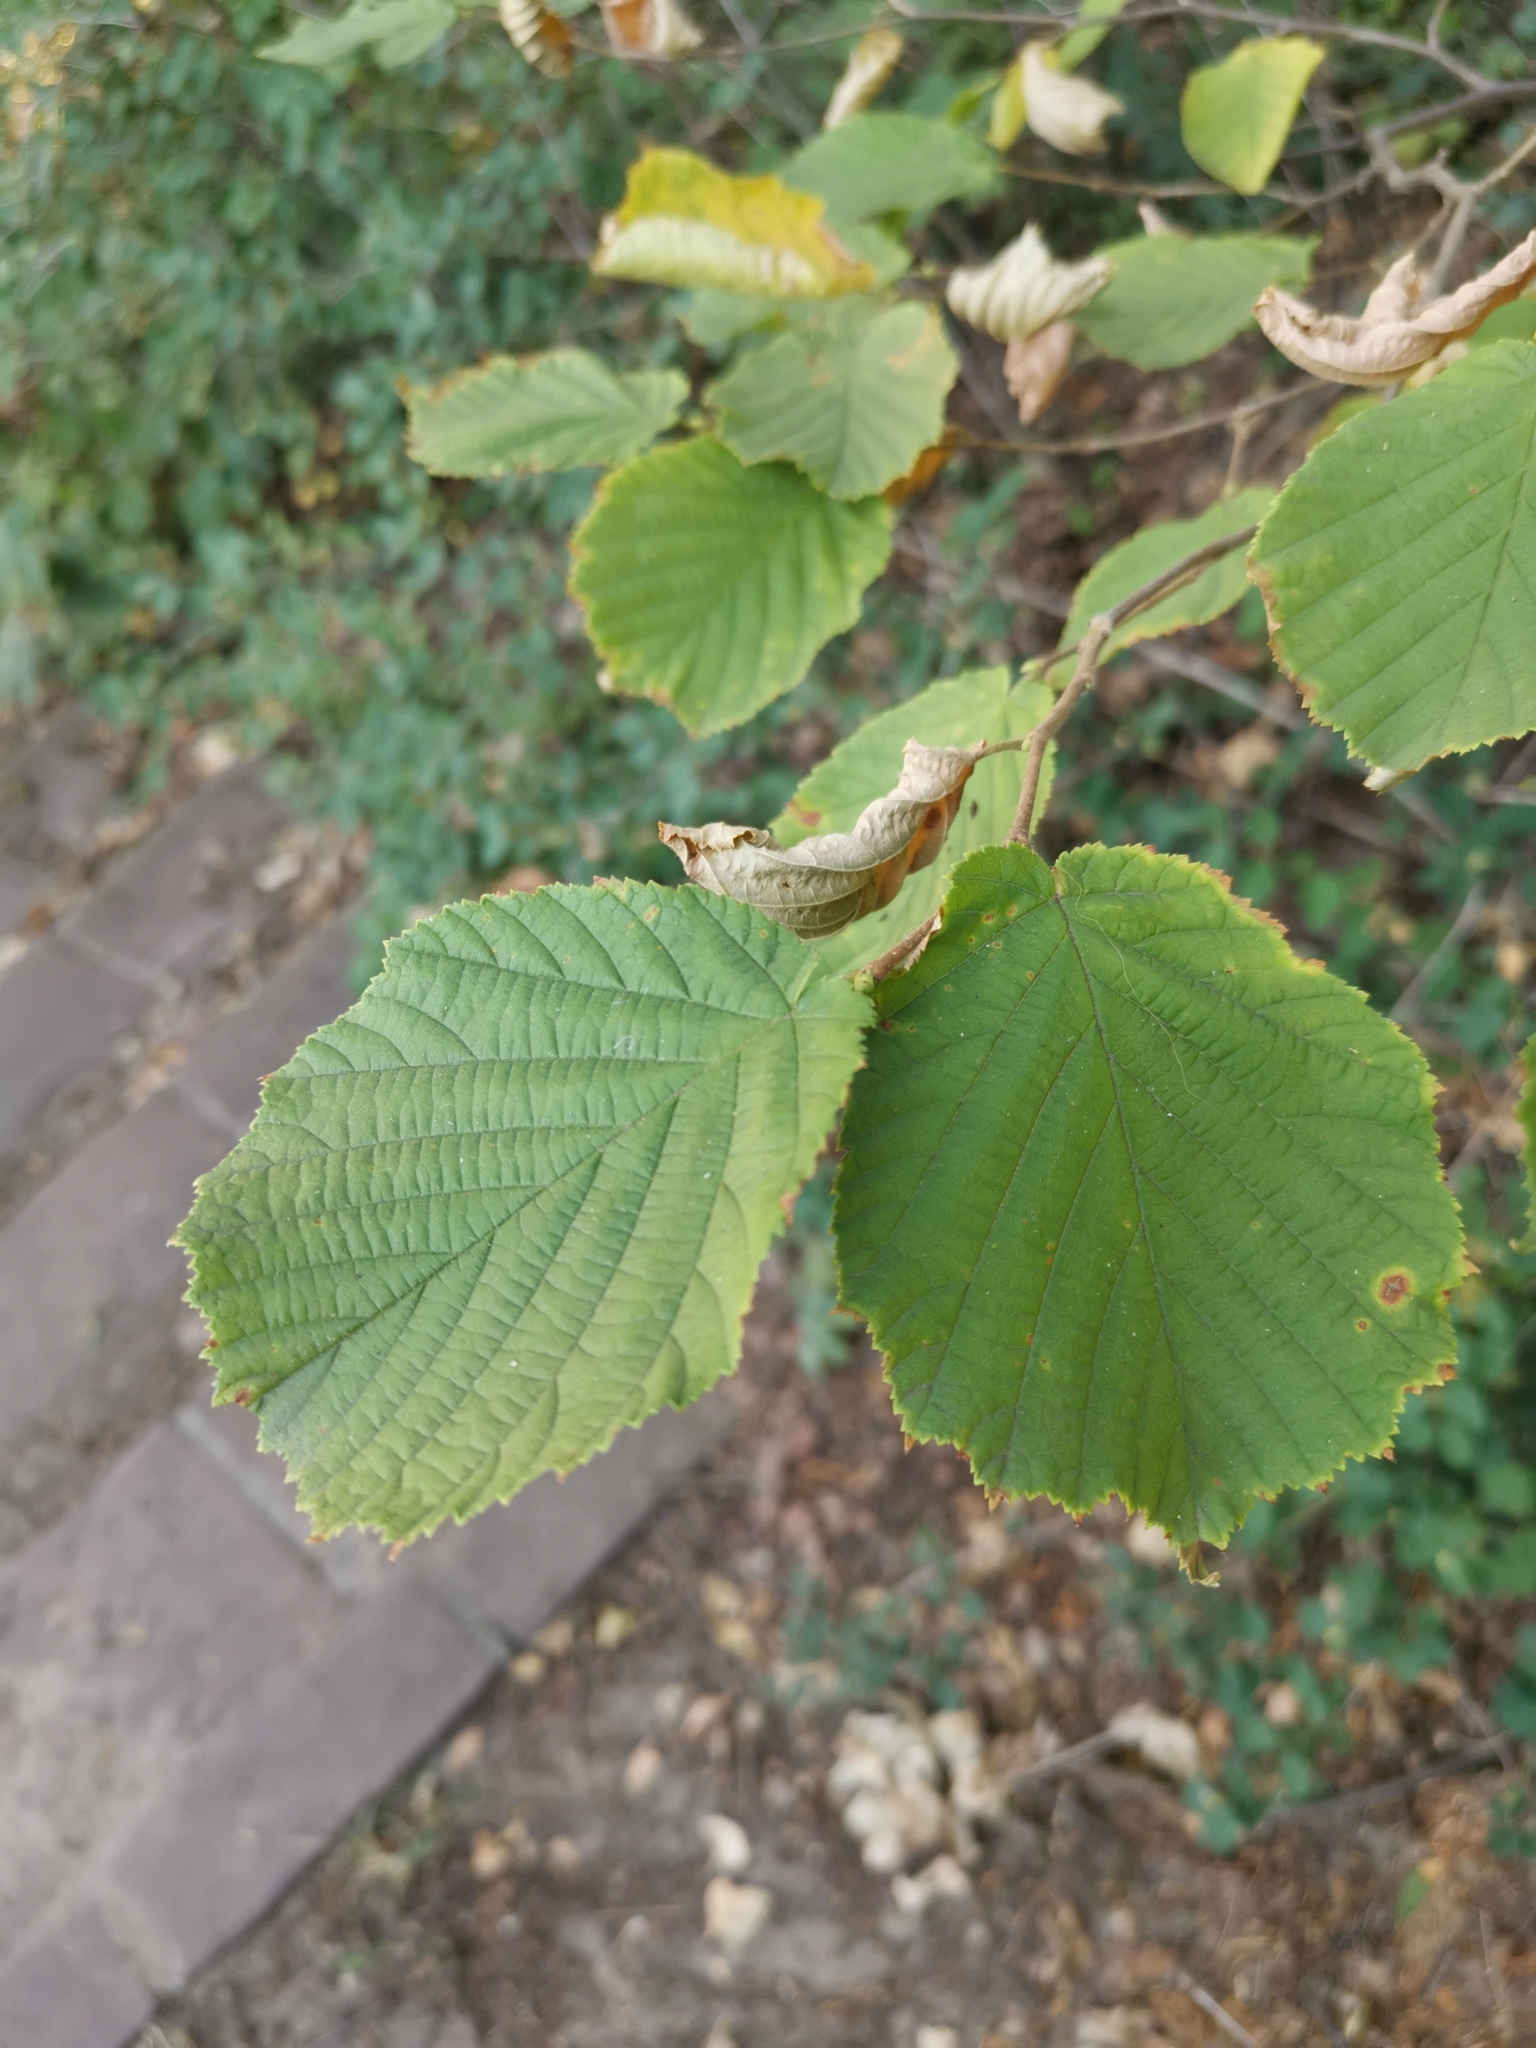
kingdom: Plantae
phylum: Tracheophyta
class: Magnoliopsida
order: Fagales
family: Betulaceae
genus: Corylus
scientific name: Corylus avellana
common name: European hazel
